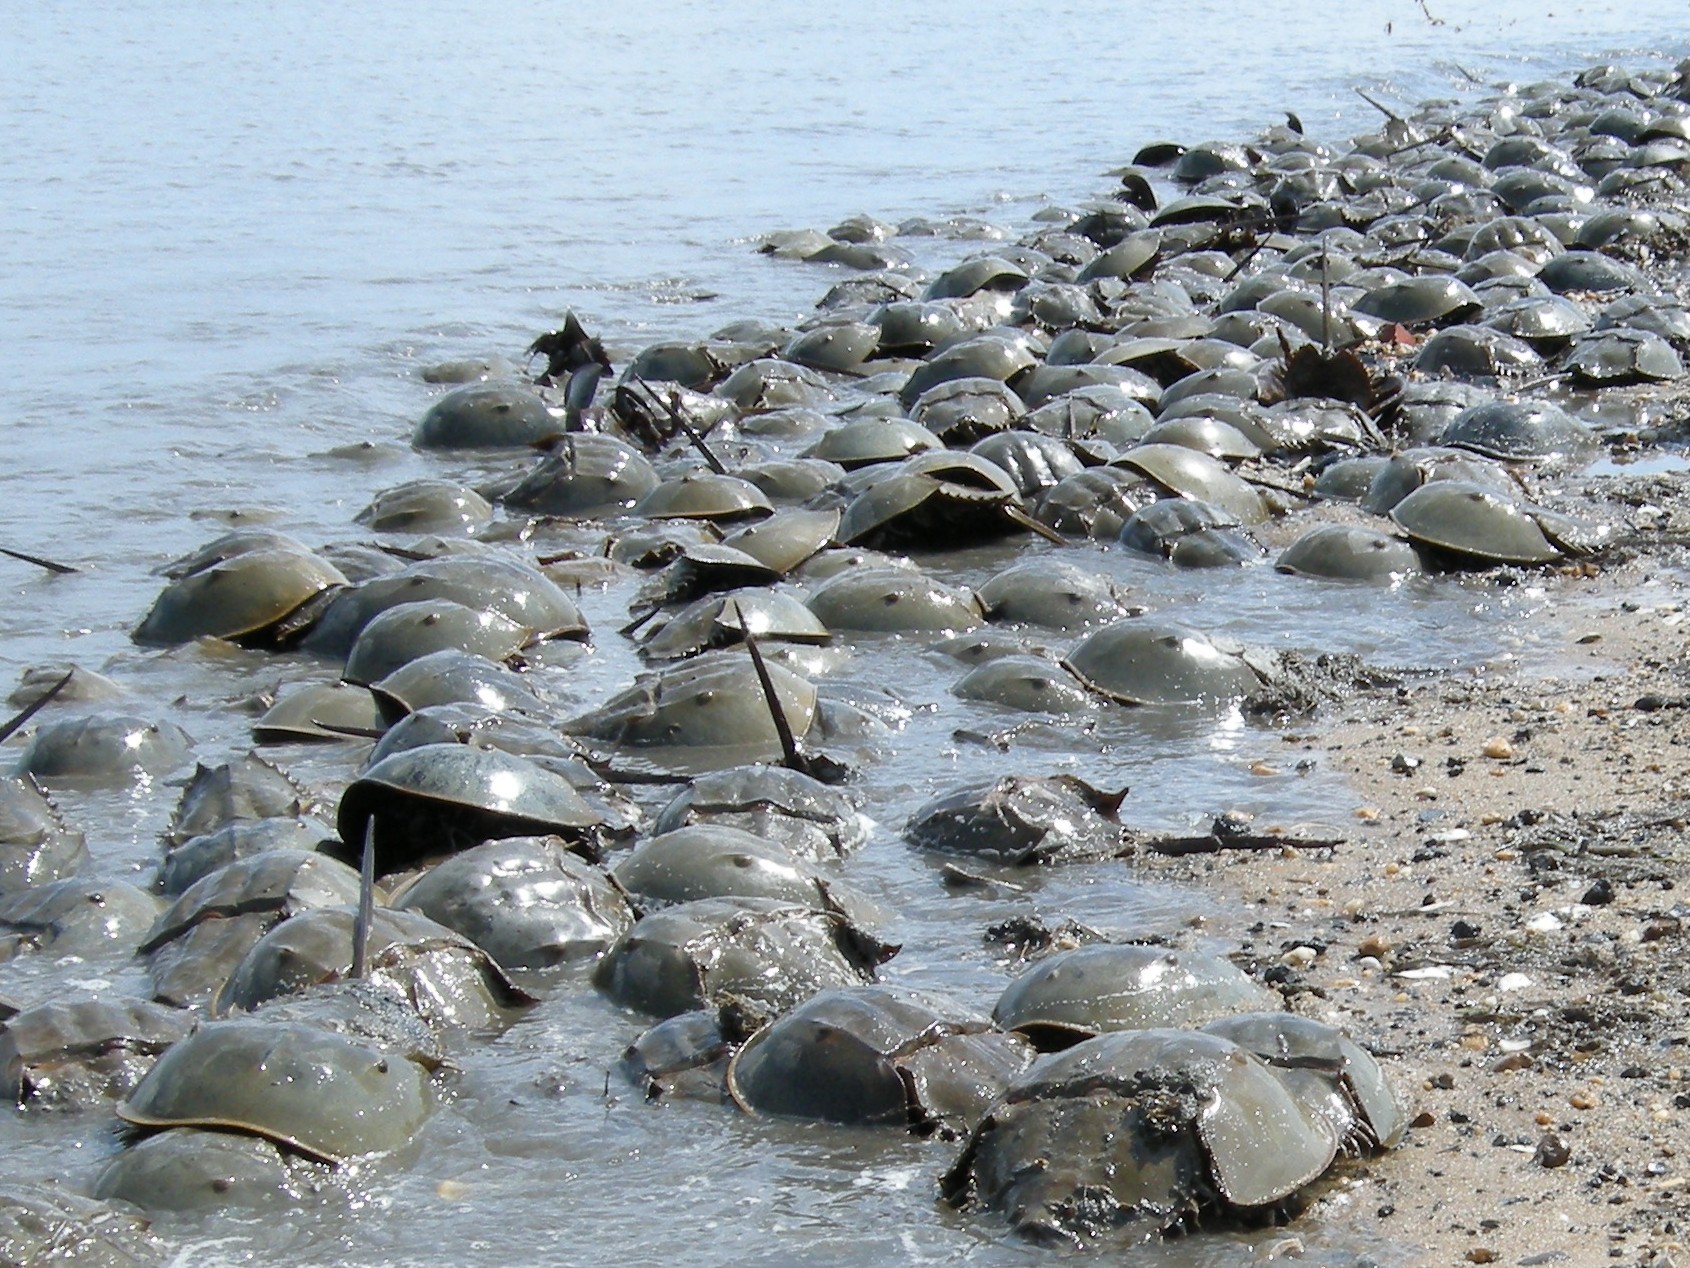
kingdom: Animalia
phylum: Arthropoda
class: Merostomata
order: Xiphosurida
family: Limulidae
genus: Limulus
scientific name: Limulus polyphemus
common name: Horseshoe crab
